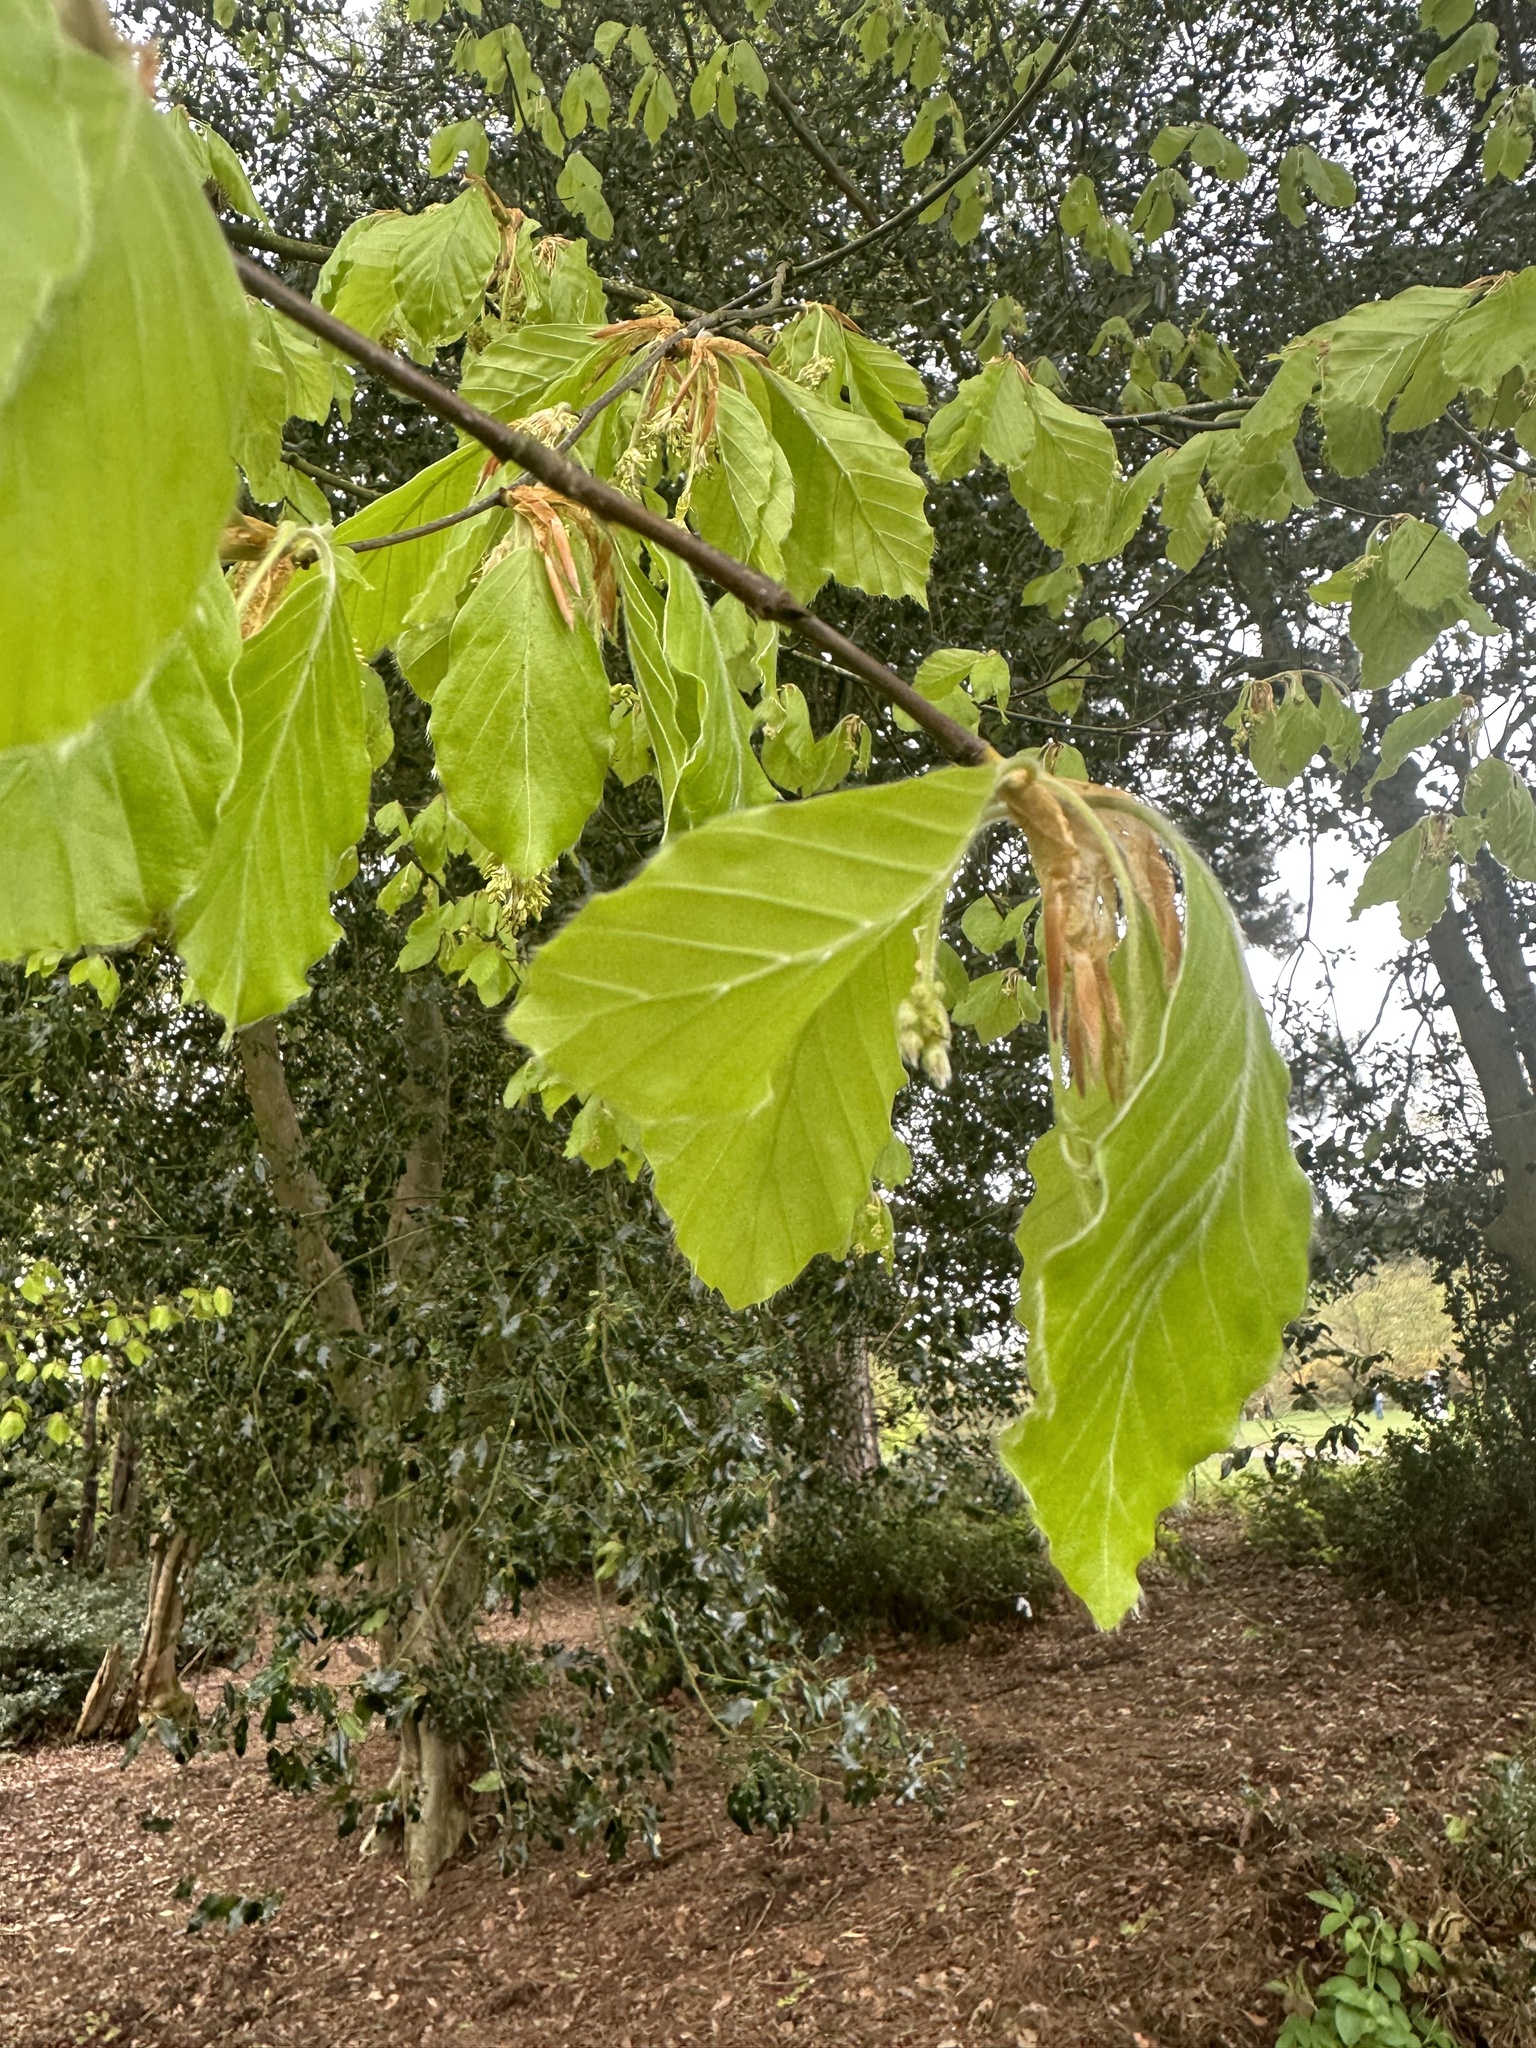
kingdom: Plantae
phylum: Tracheophyta
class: Magnoliopsida
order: Fagales
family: Fagaceae
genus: Fagus
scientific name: Fagus sylvatica
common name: Beech
